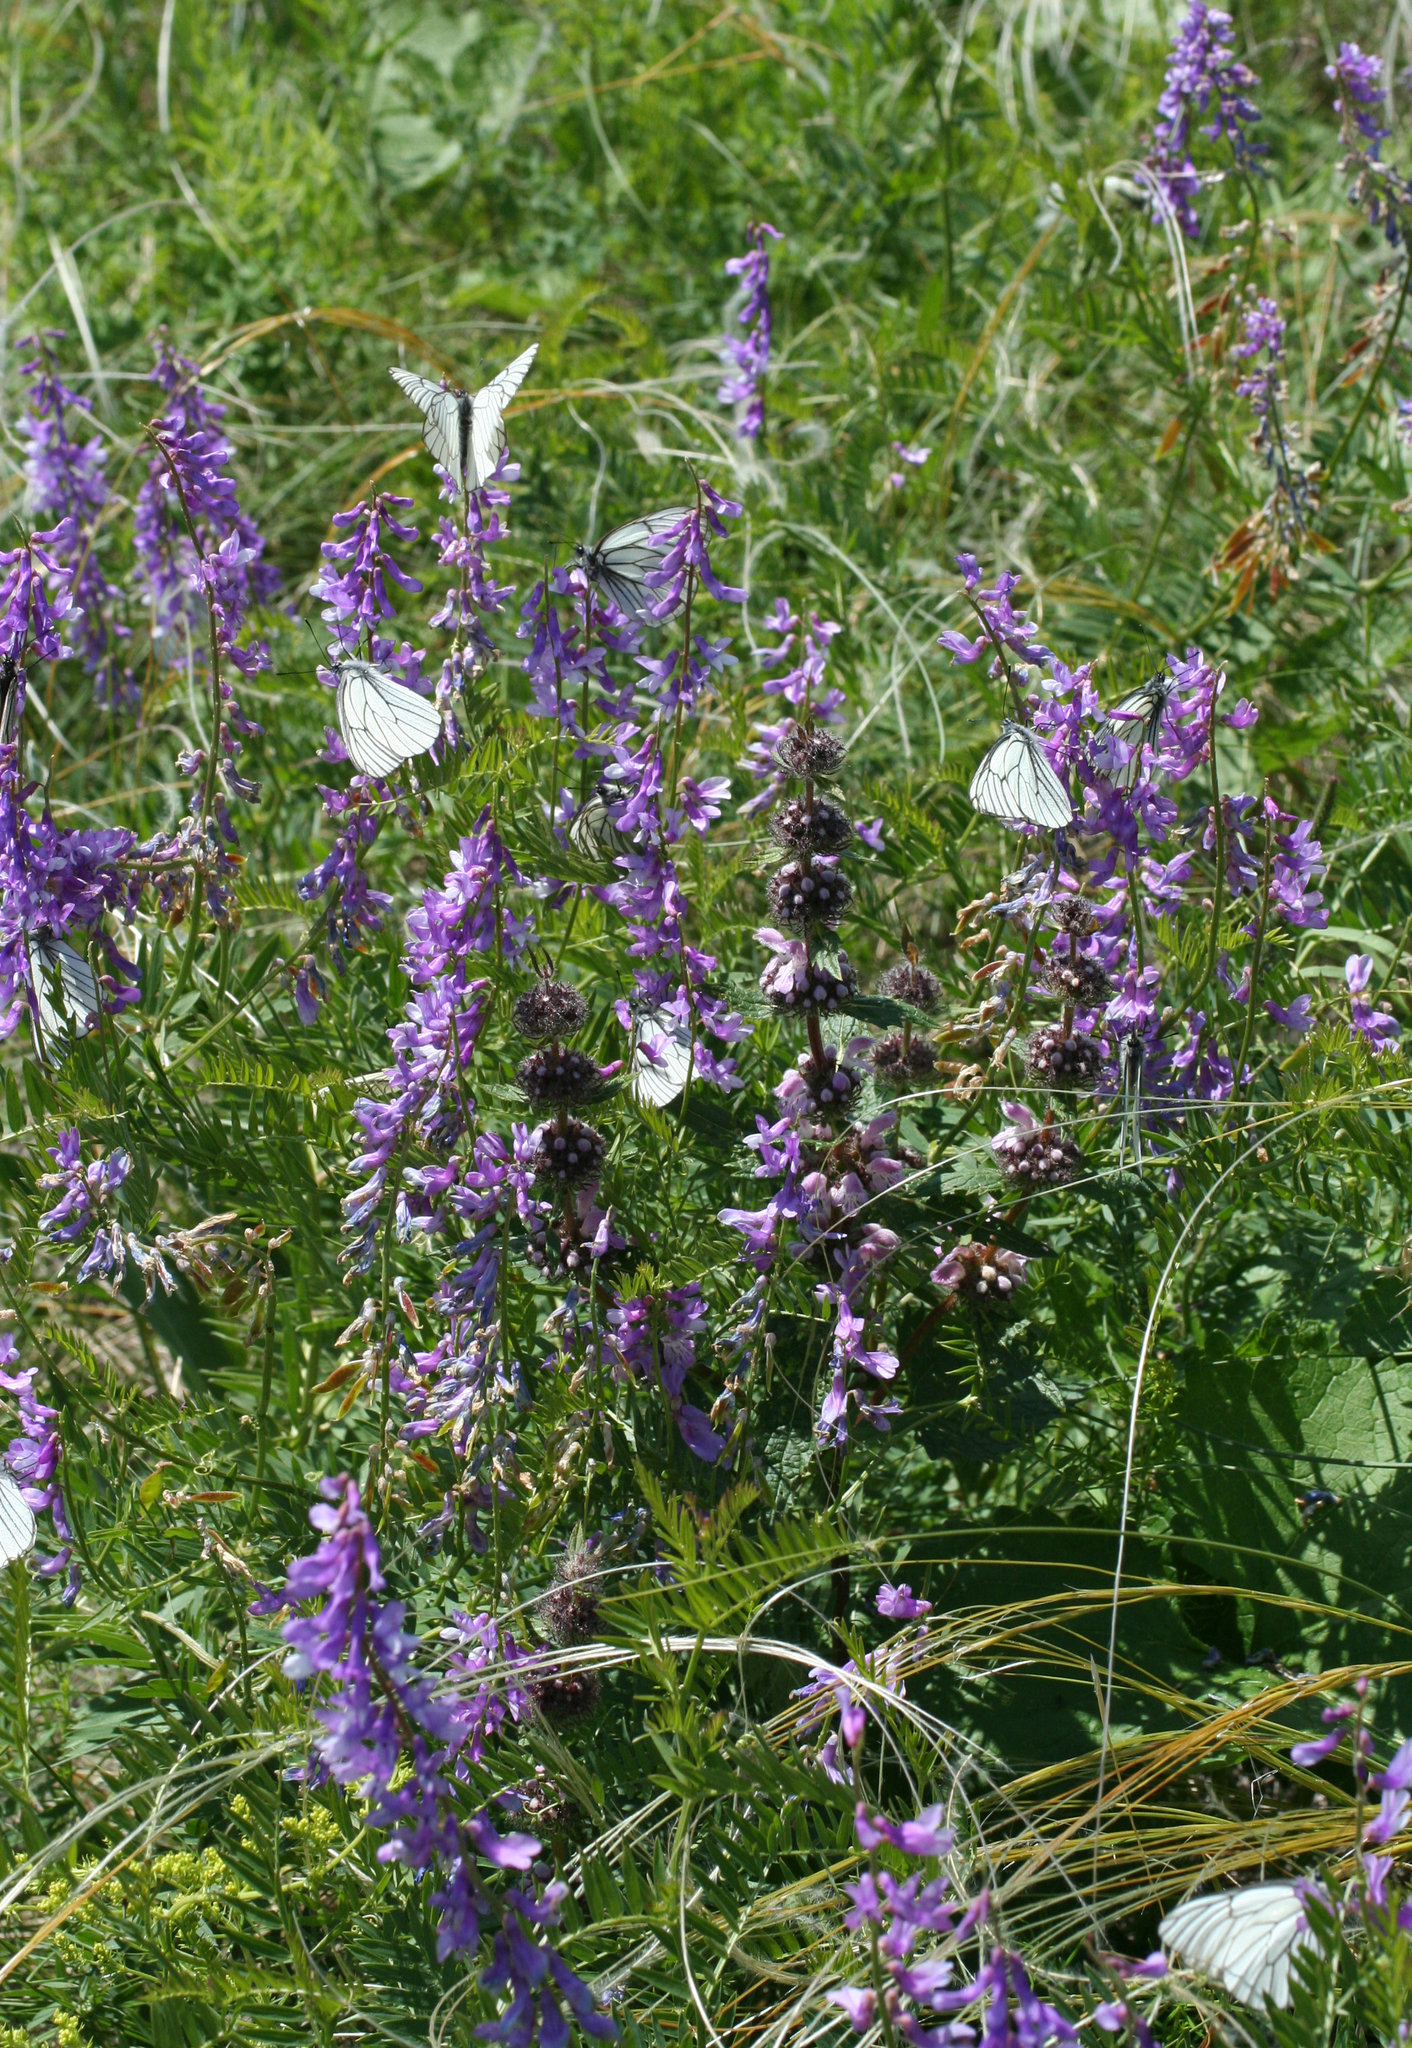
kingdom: Plantae
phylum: Tracheophyta
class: Magnoliopsida
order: Fabales
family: Fabaceae
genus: Vicia
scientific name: Vicia tenuifolia
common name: Fine-leaved vetch
